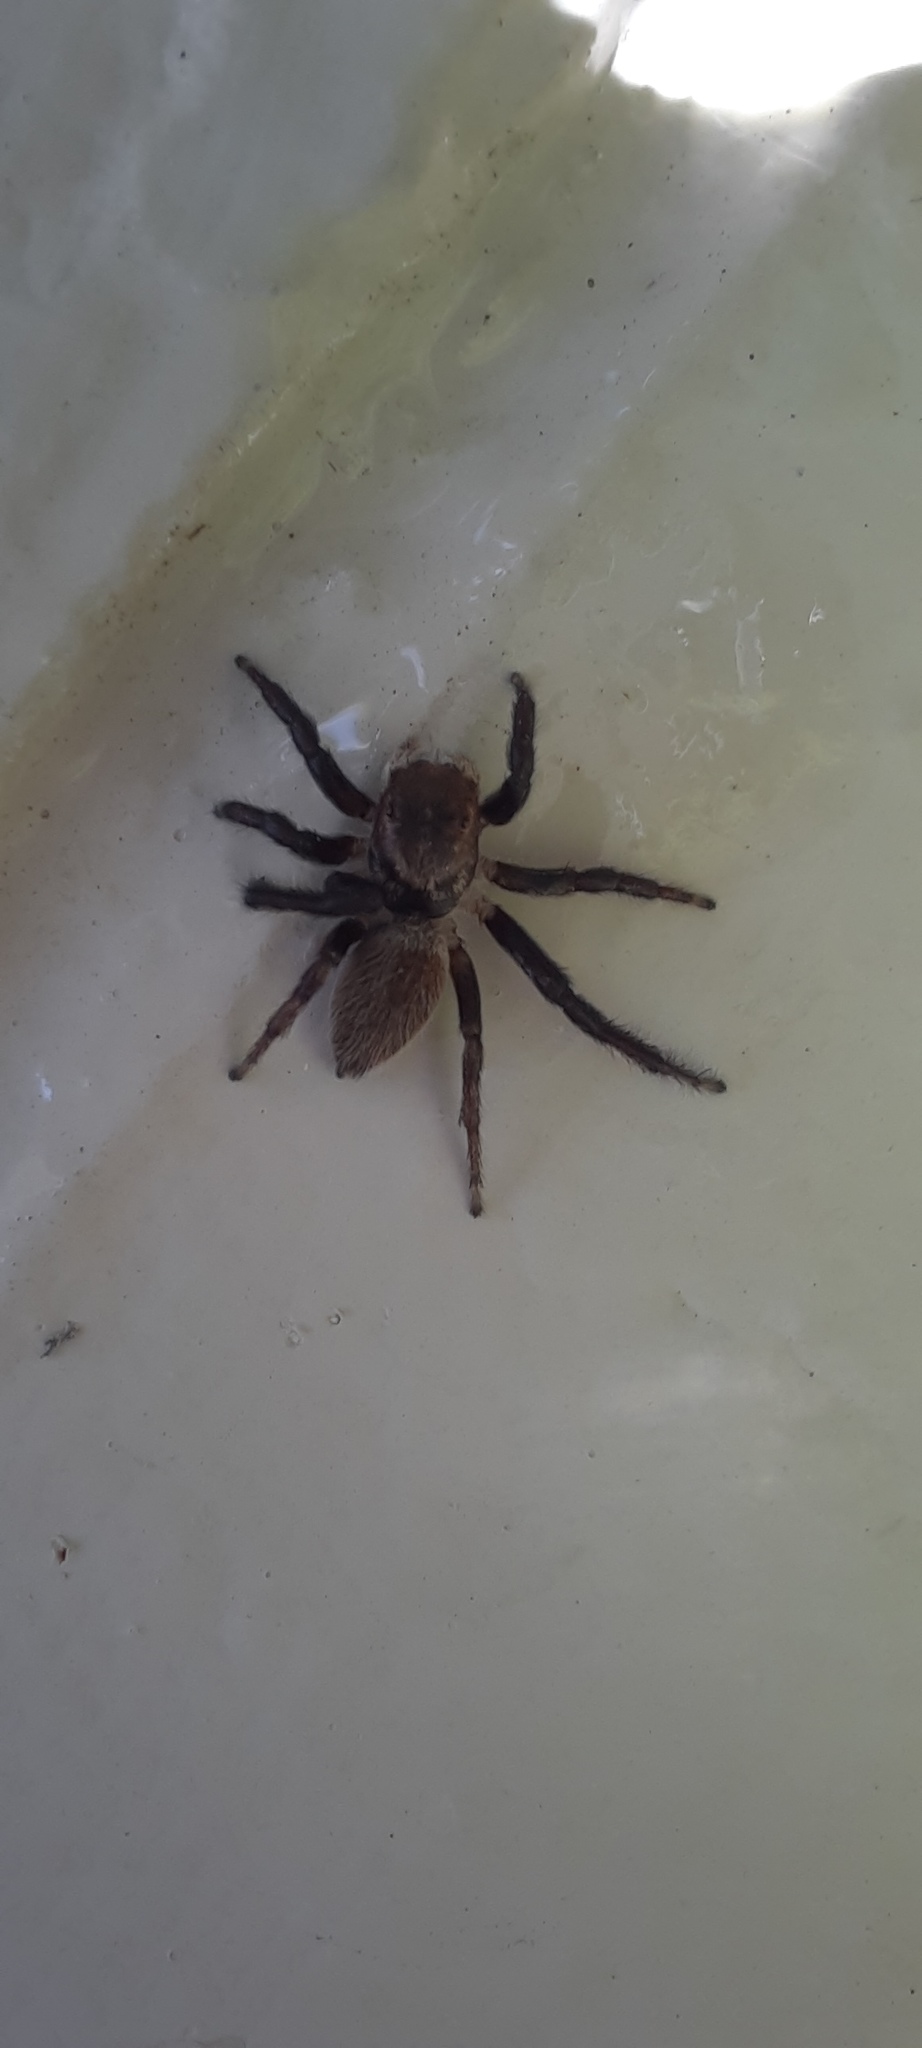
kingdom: Animalia
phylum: Arthropoda
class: Arachnida
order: Araneae
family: Salticidae
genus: Maratus
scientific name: Maratus griseus
